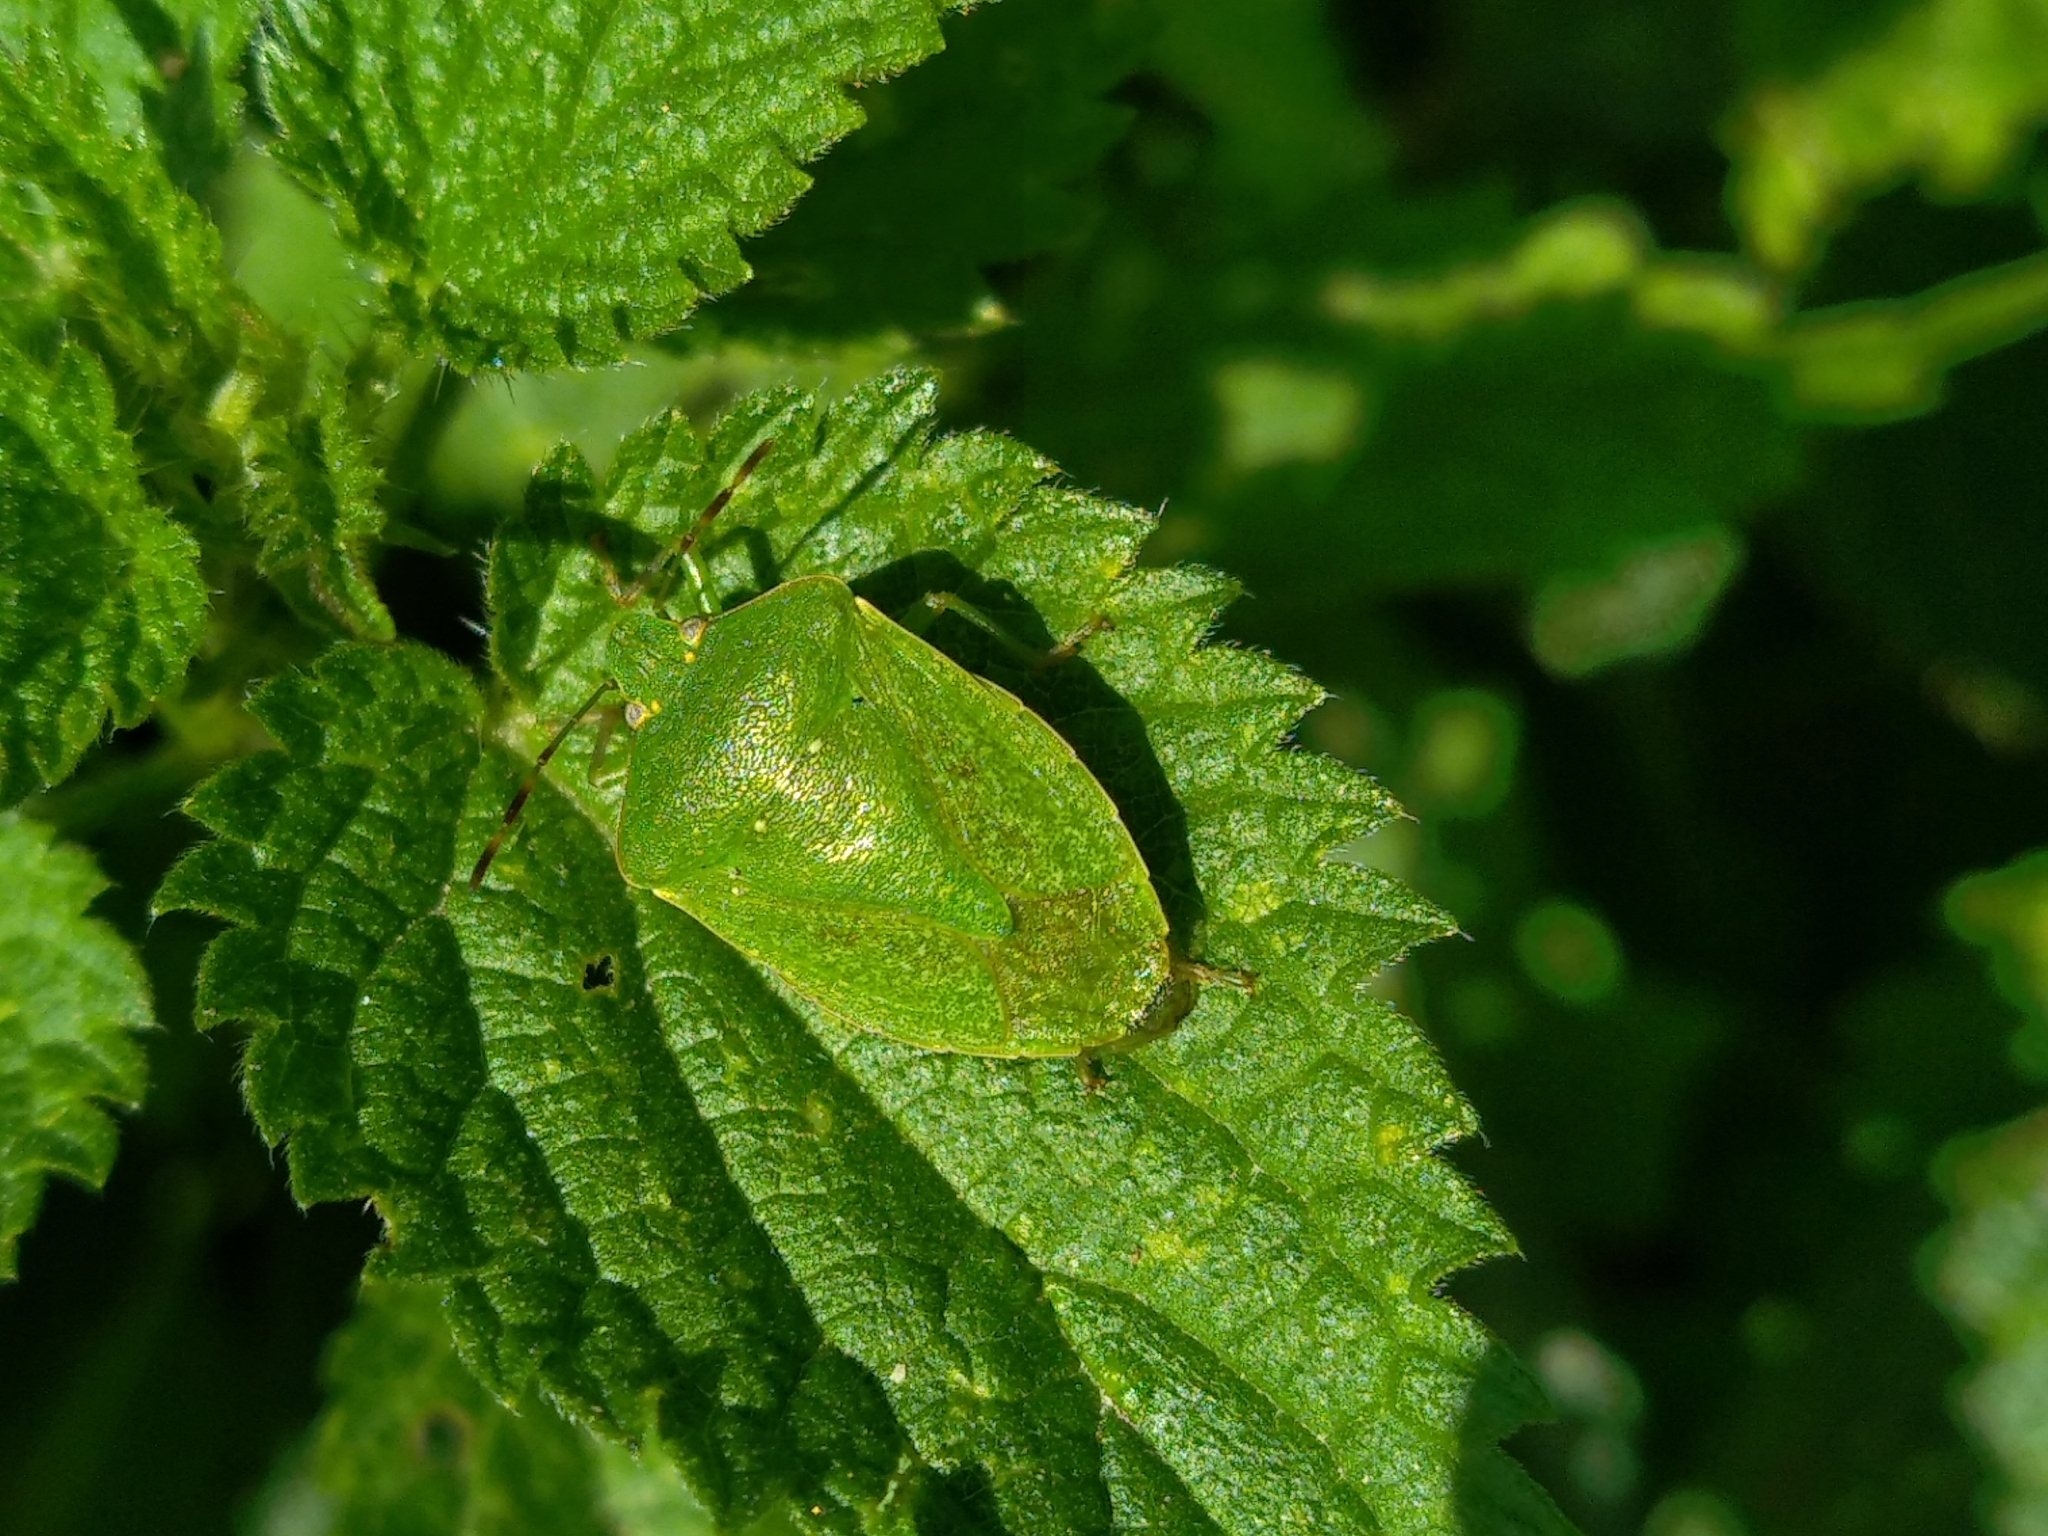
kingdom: Animalia
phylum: Arthropoda
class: Insecta
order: Hemiptera
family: Pentatomidae
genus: Nezara
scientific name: Nezara viridula
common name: Southern green stink bug
